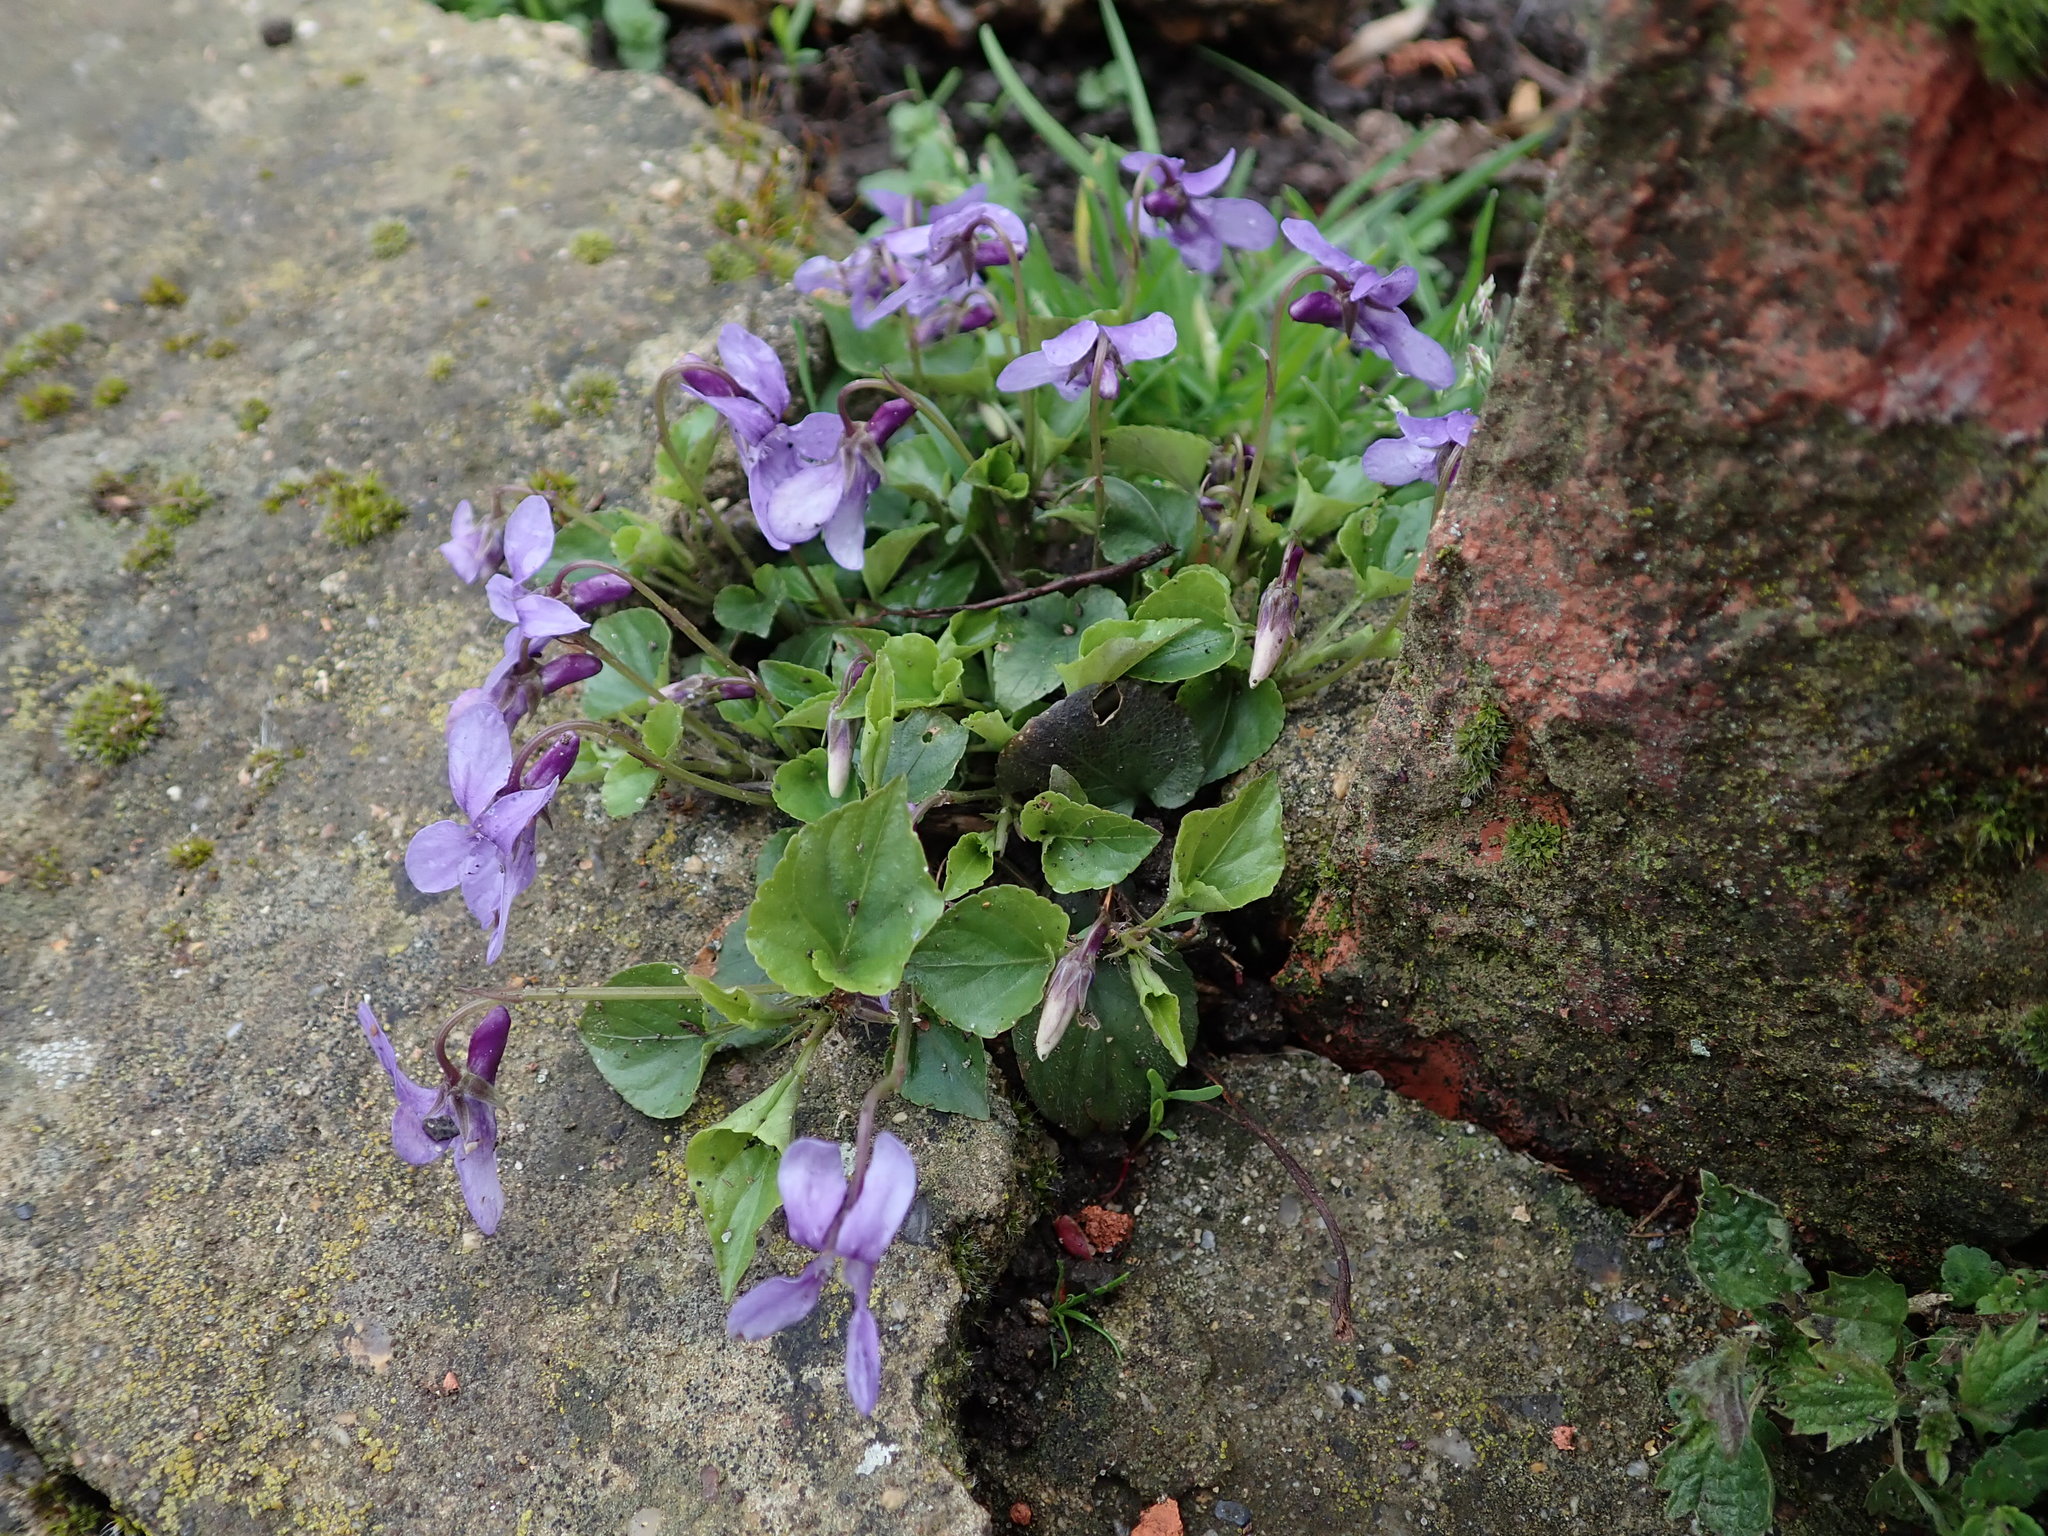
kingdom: Plantae
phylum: Tracheophyta
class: Magnoliopsida
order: Malpighiales
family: Violaceae
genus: Viola
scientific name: Viola reichenbachiana
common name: Early dog-violet
